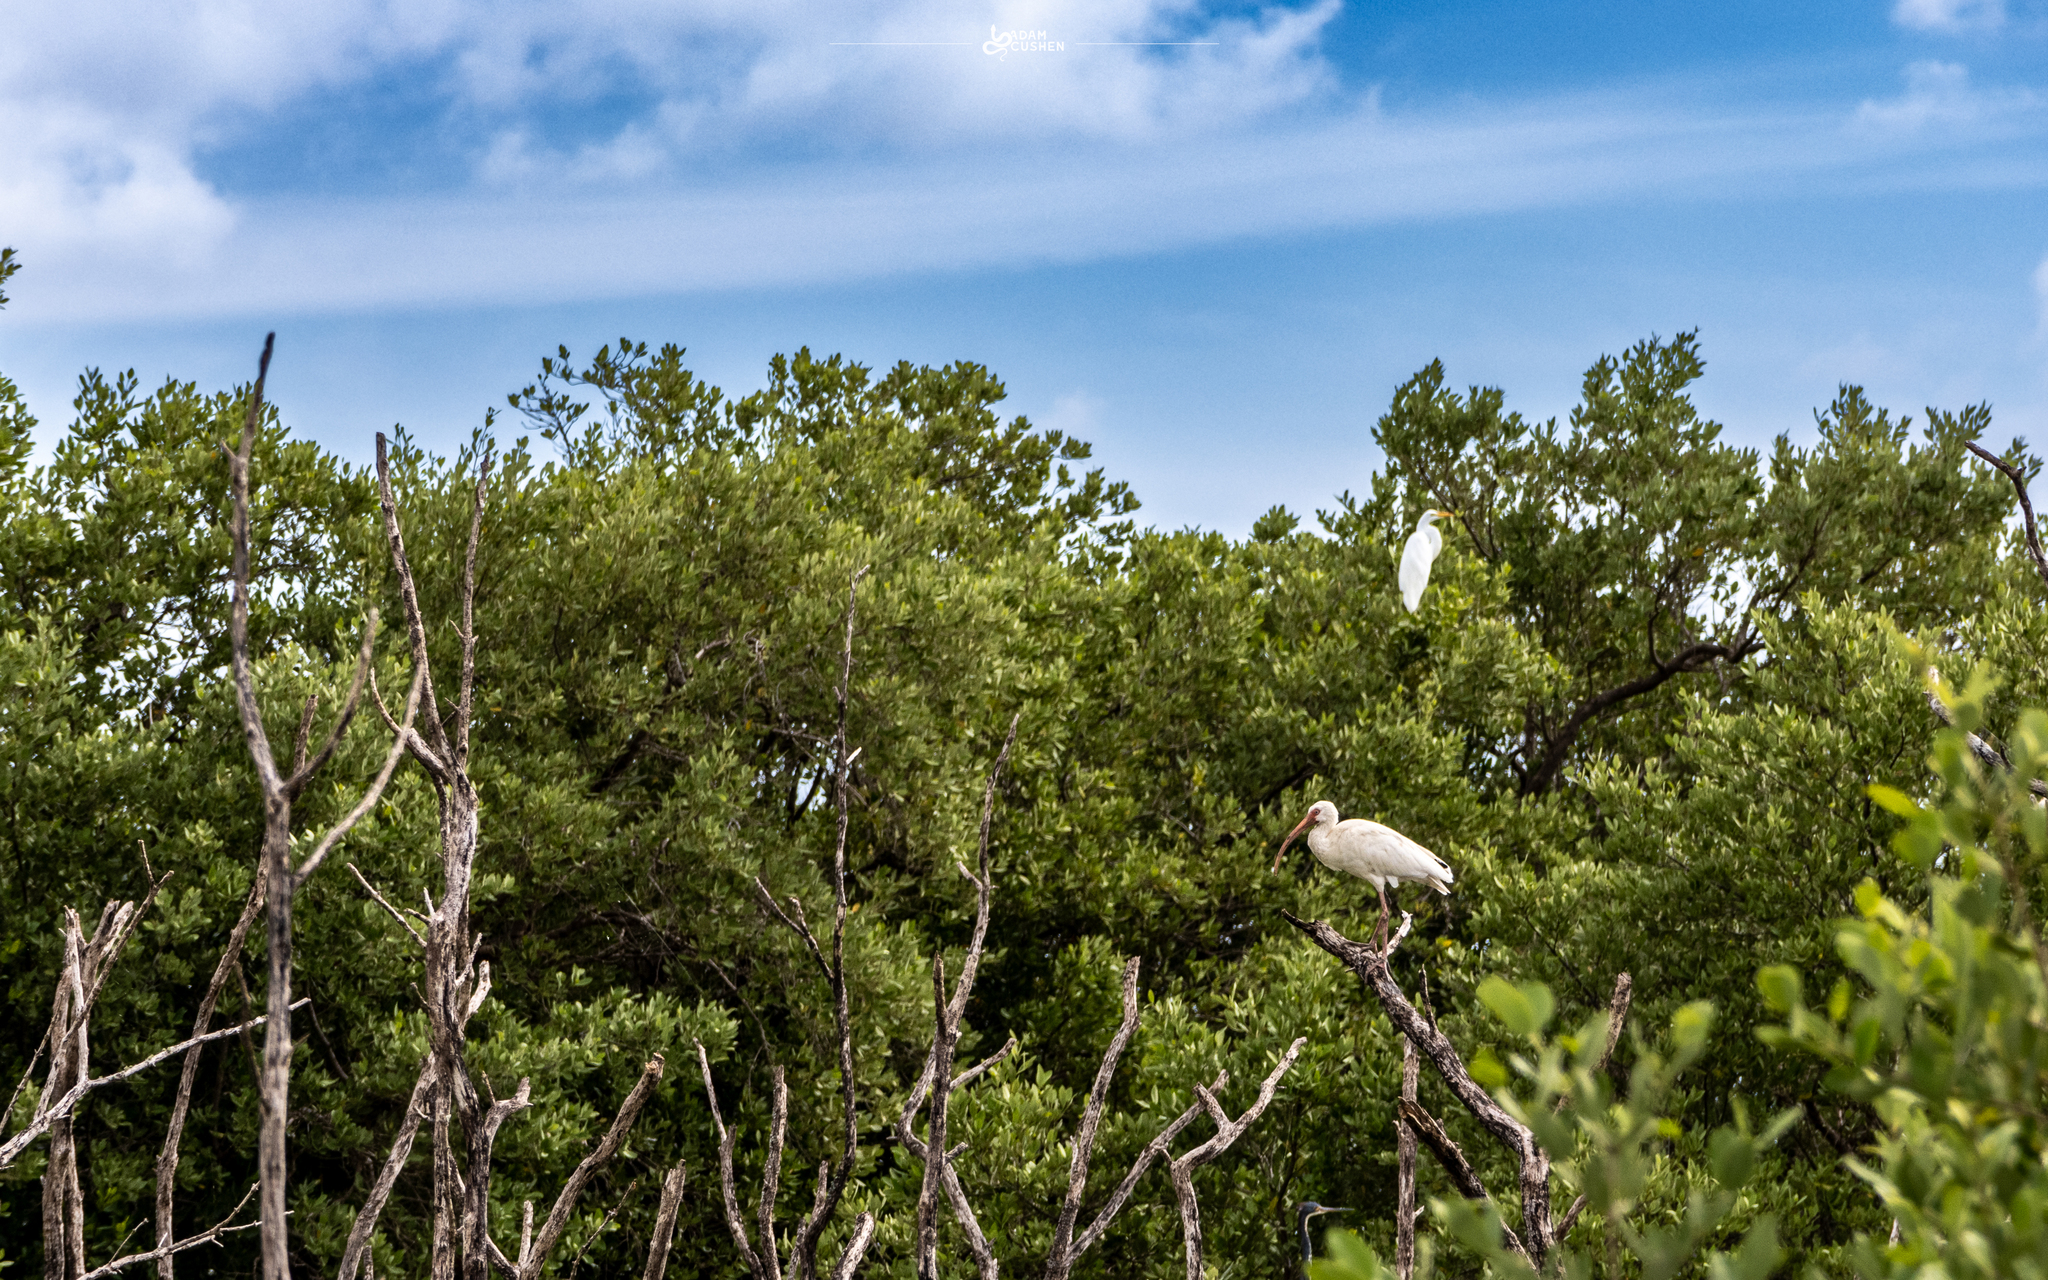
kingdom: Animalia
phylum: Chordata
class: Aves
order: Pelecaniformes
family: Threskiornithidae
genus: Eudocimus
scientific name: Eudocimus albus
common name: White ibis
